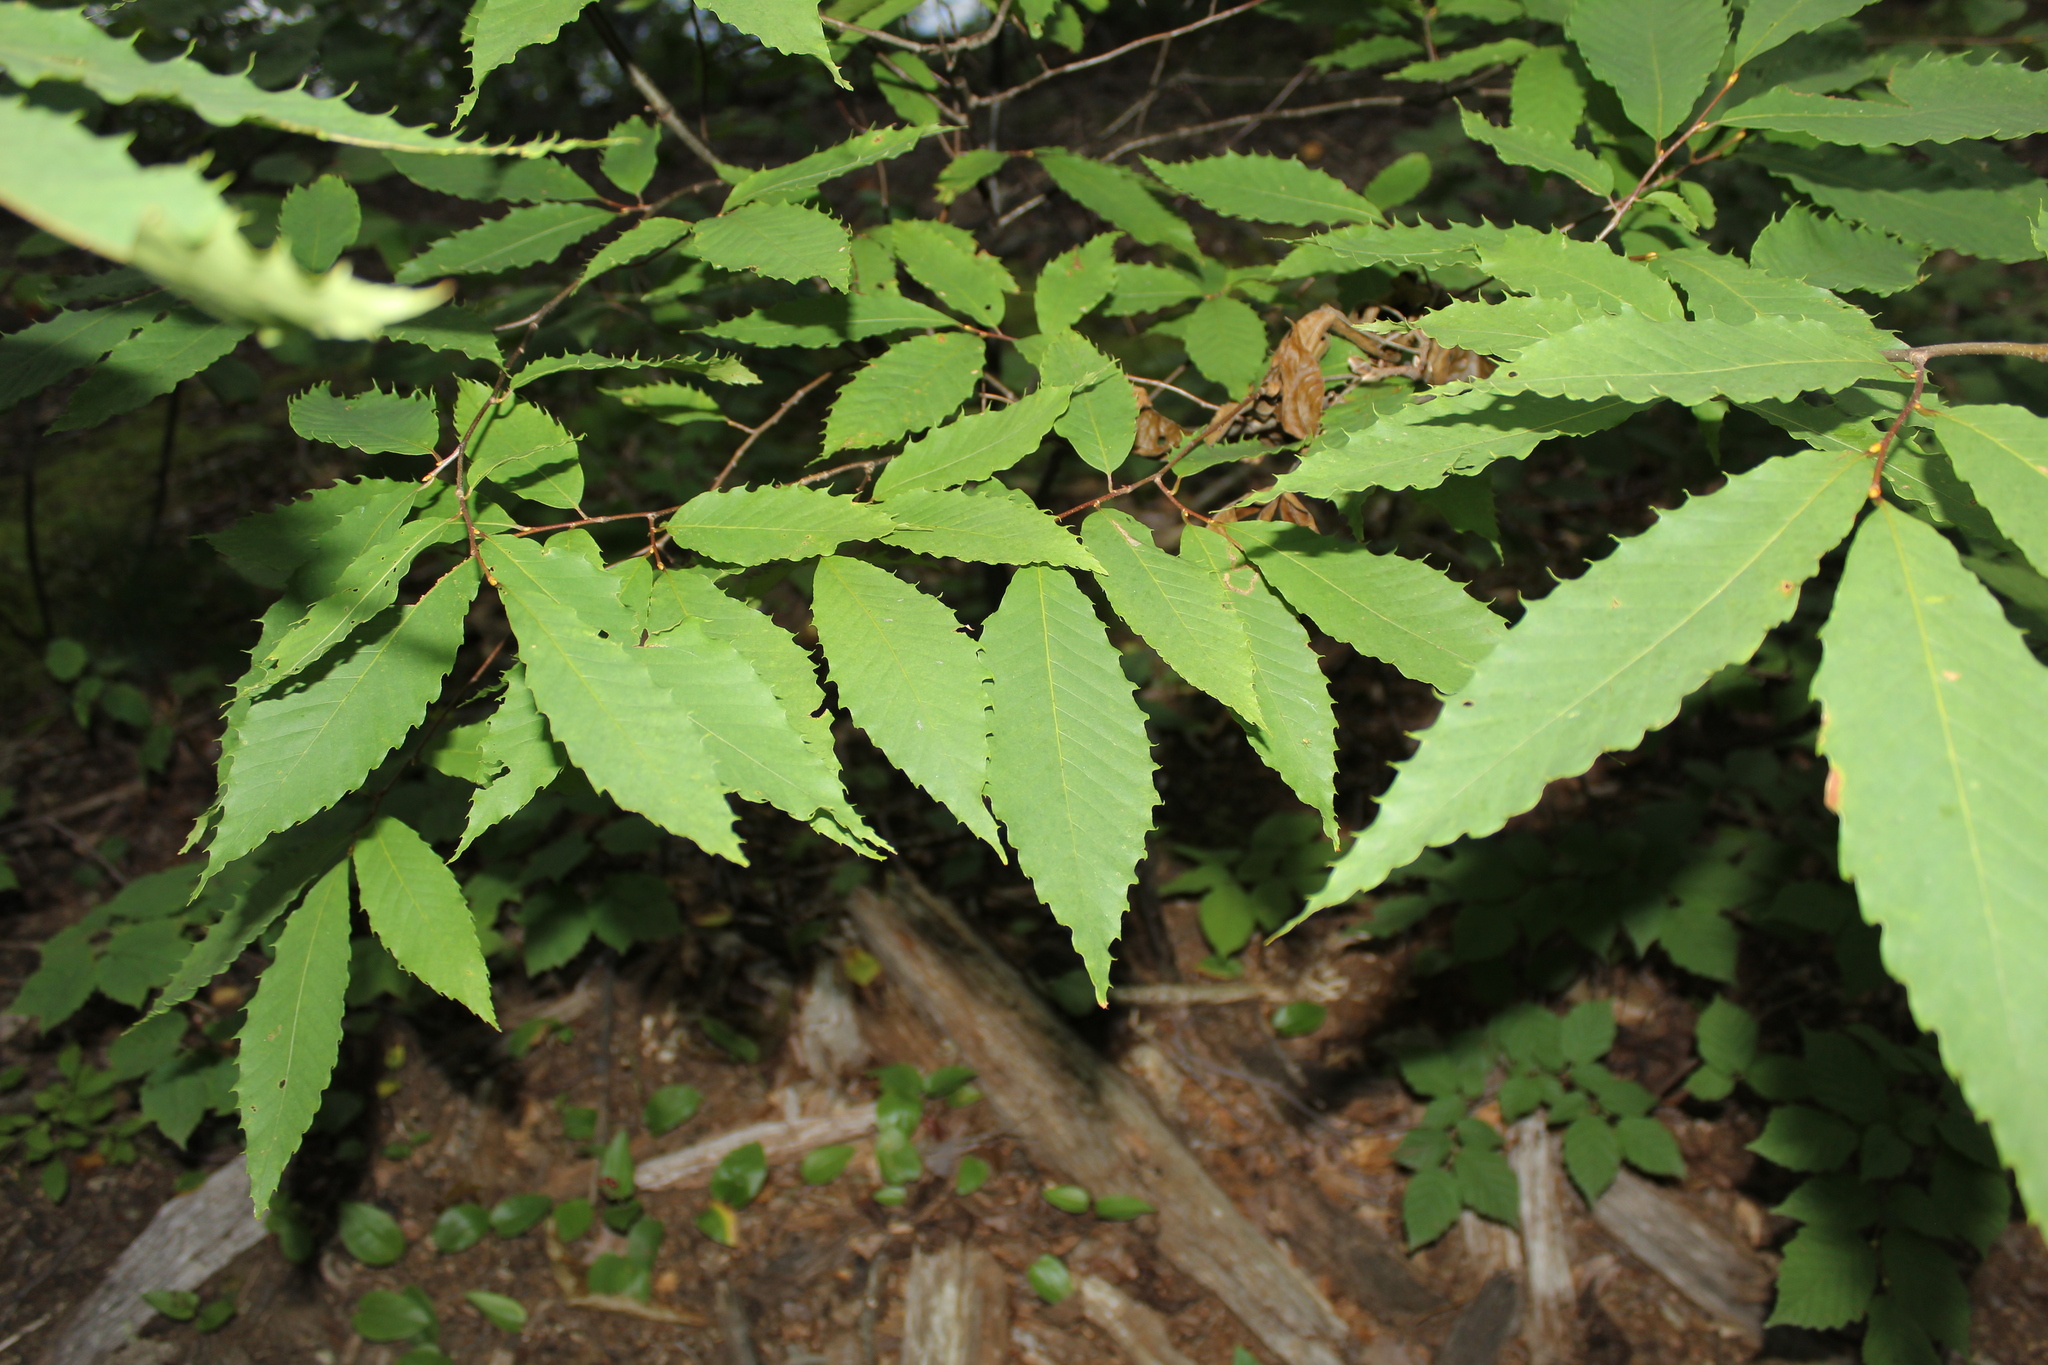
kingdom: Plantae
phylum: Tracheophyta
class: Magnoliopsida
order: Fagales
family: Fagaceae
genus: Castanea
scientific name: Castanea dentata
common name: American chestnut
